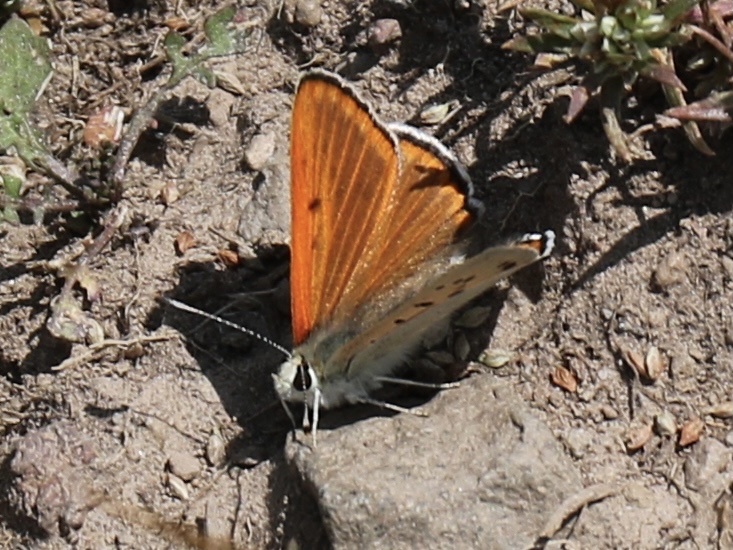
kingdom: Animalia
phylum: Arthropoda
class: Insecta
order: Lepidoptera
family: Lycaenidae
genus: Tharsalea
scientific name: Tharsalea rubidus
